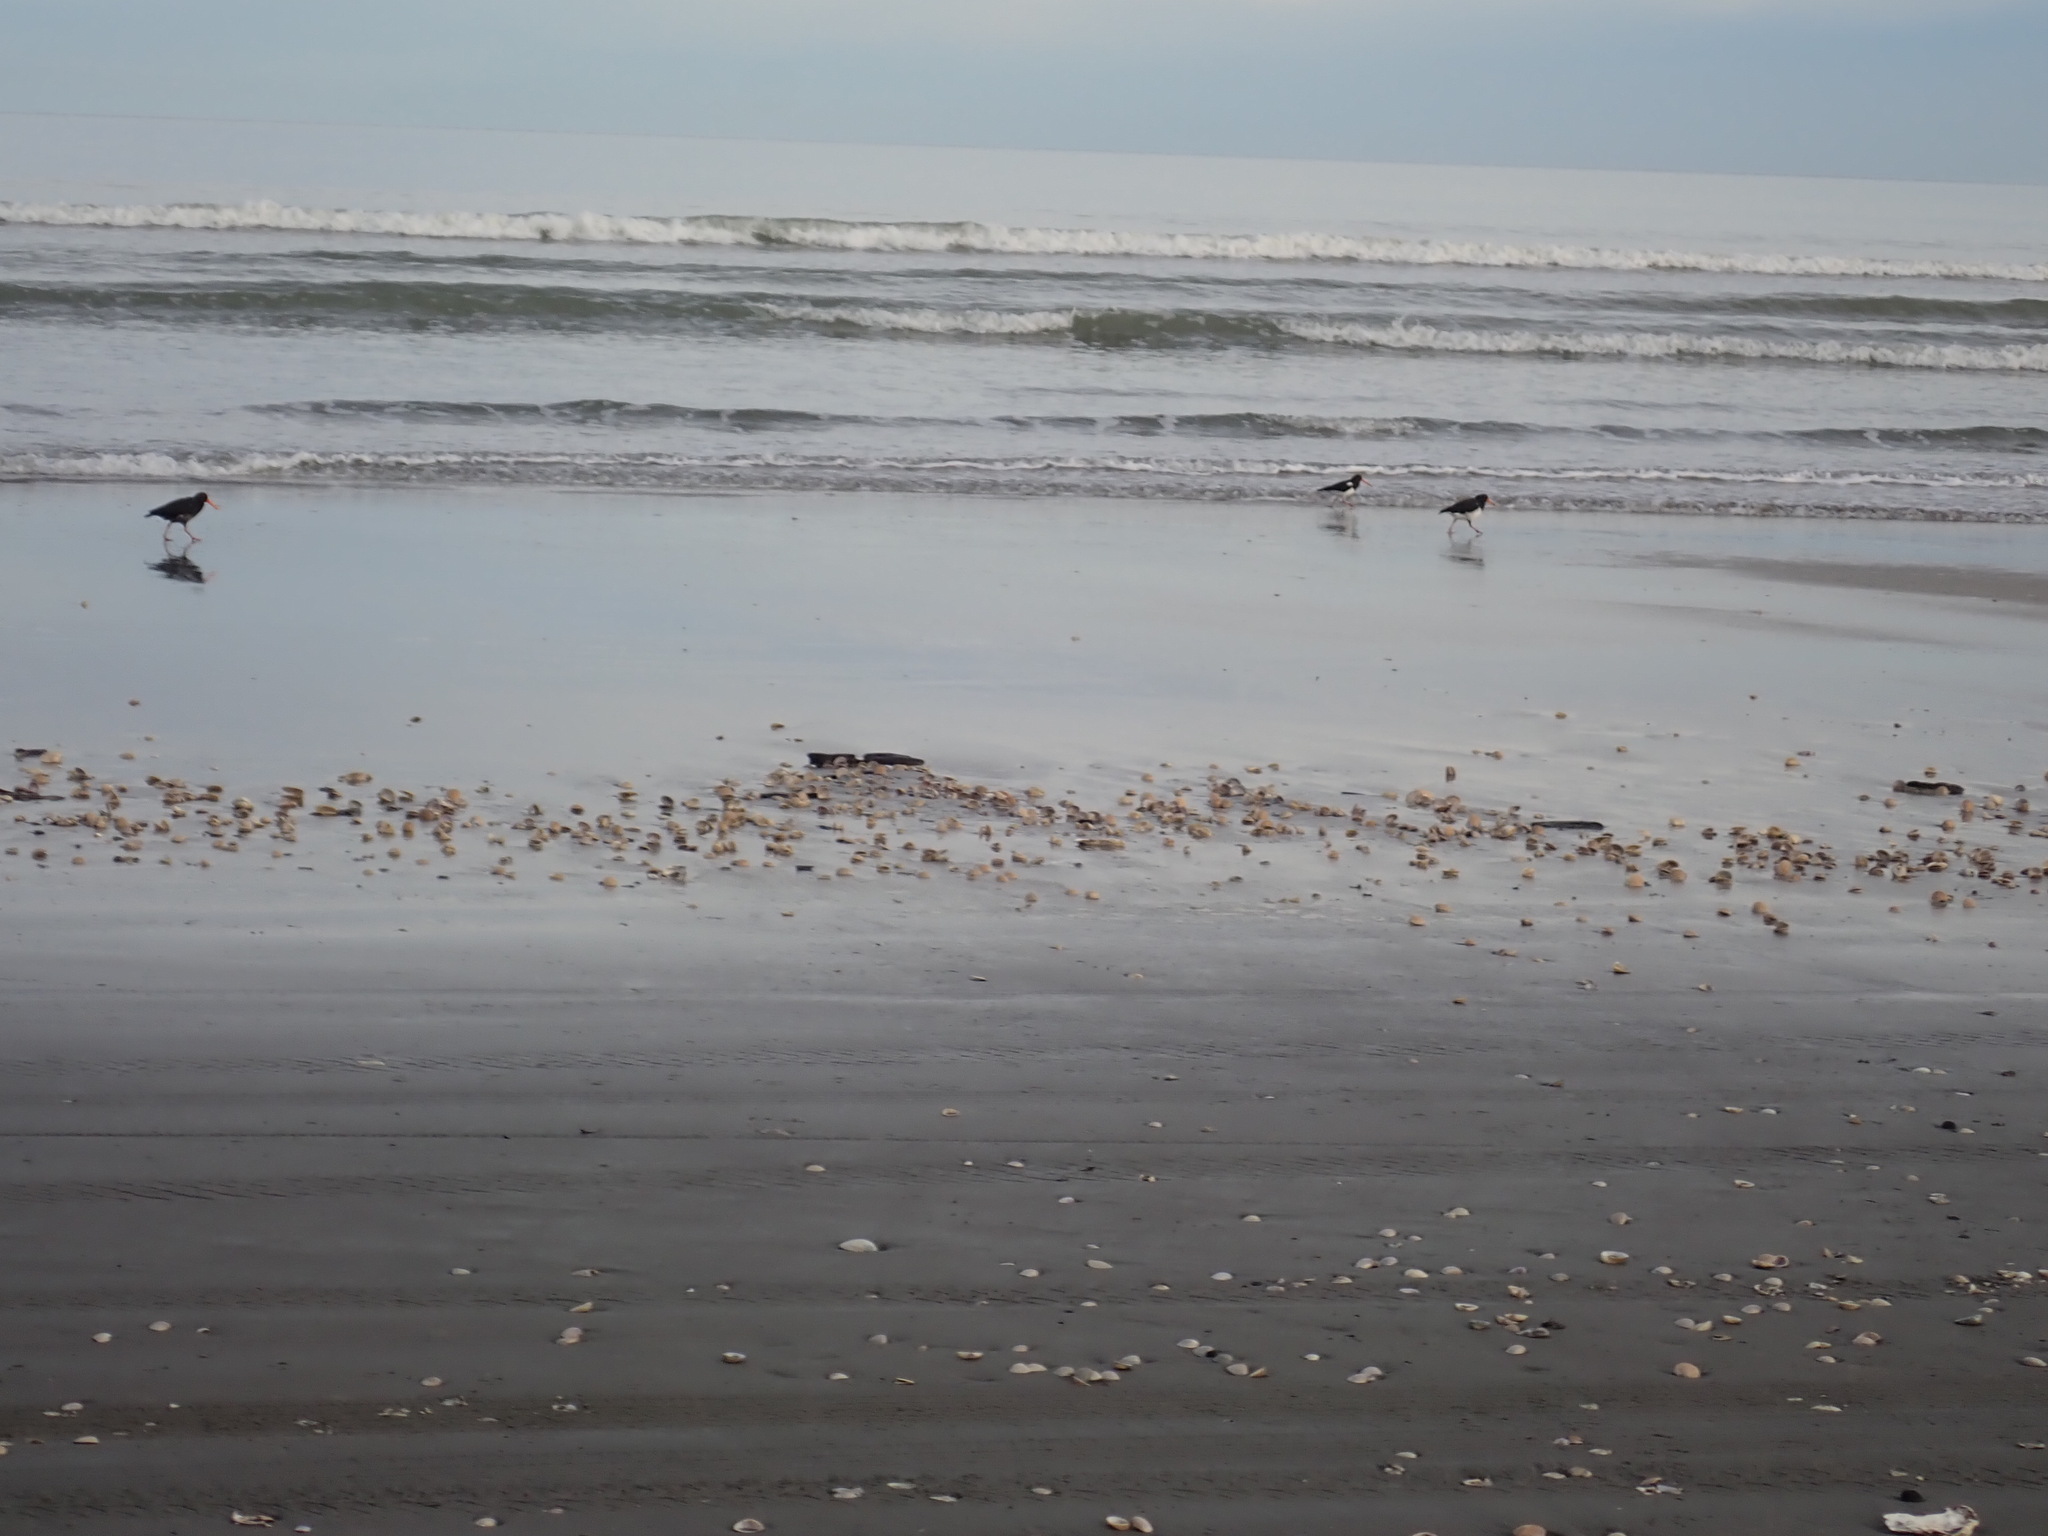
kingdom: Animalia
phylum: Chordata
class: Aves
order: Charadriiformes
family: Haematopodidae
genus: Haematopus
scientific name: Haematopus finschi
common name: South island oystercatcher
